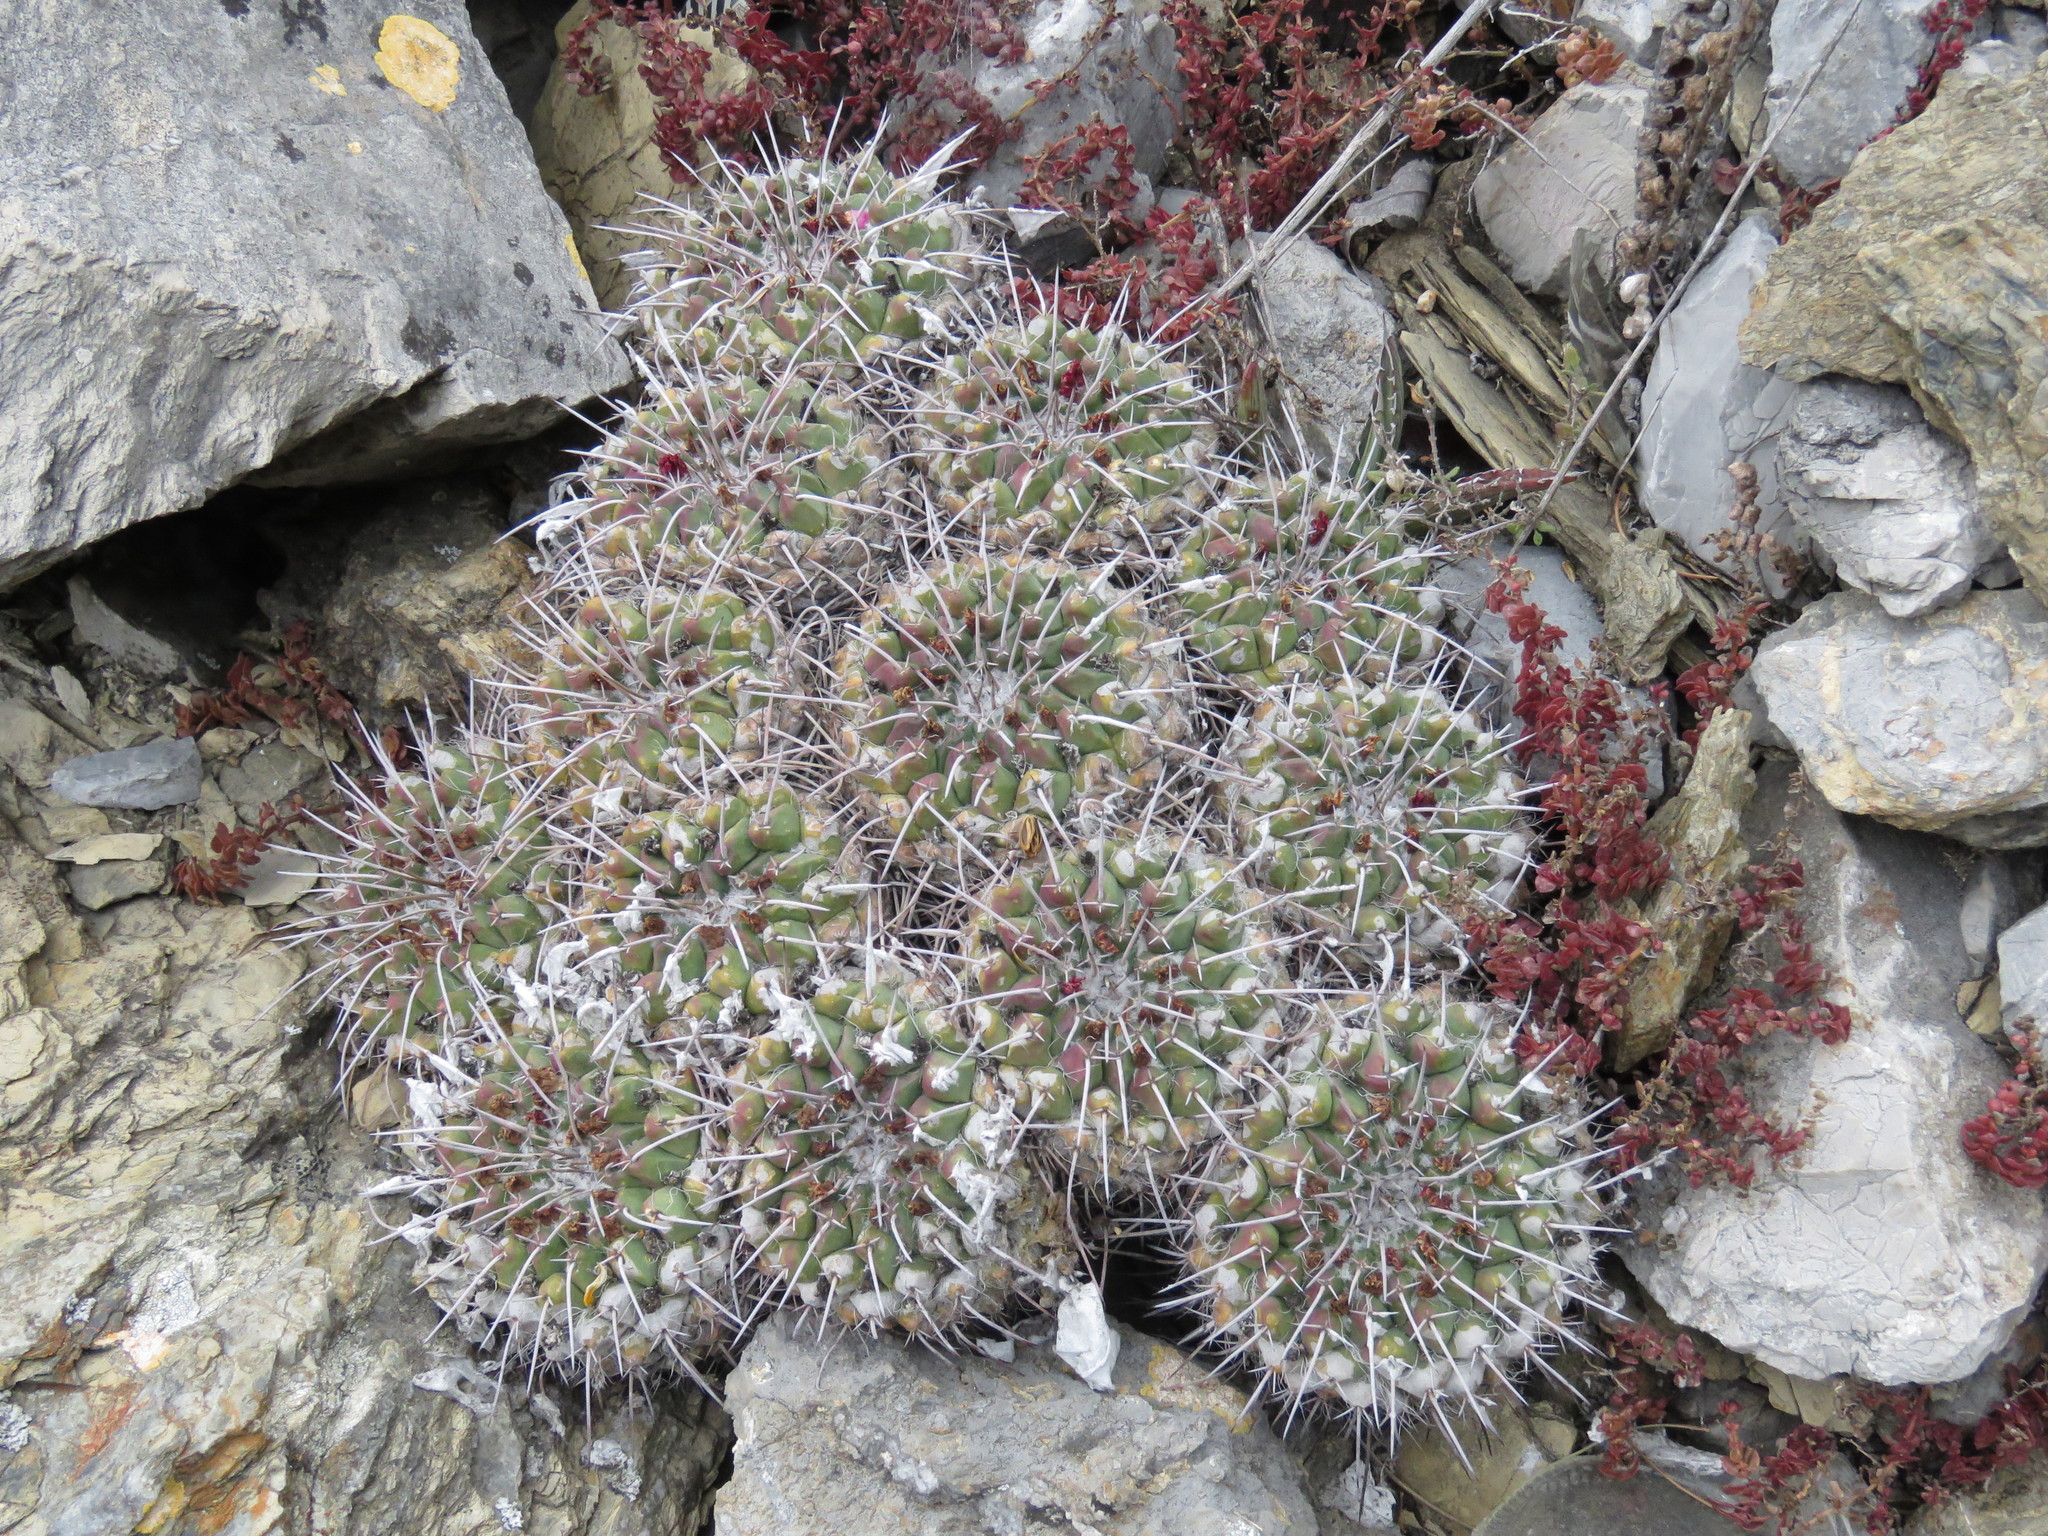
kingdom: Plantae
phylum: Tracheophyta
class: Magnoliopsida
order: Caryophyllales
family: Cactaceae
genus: Mammillaria
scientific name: Mammillaria compressa
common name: Mother-of-hundreds
